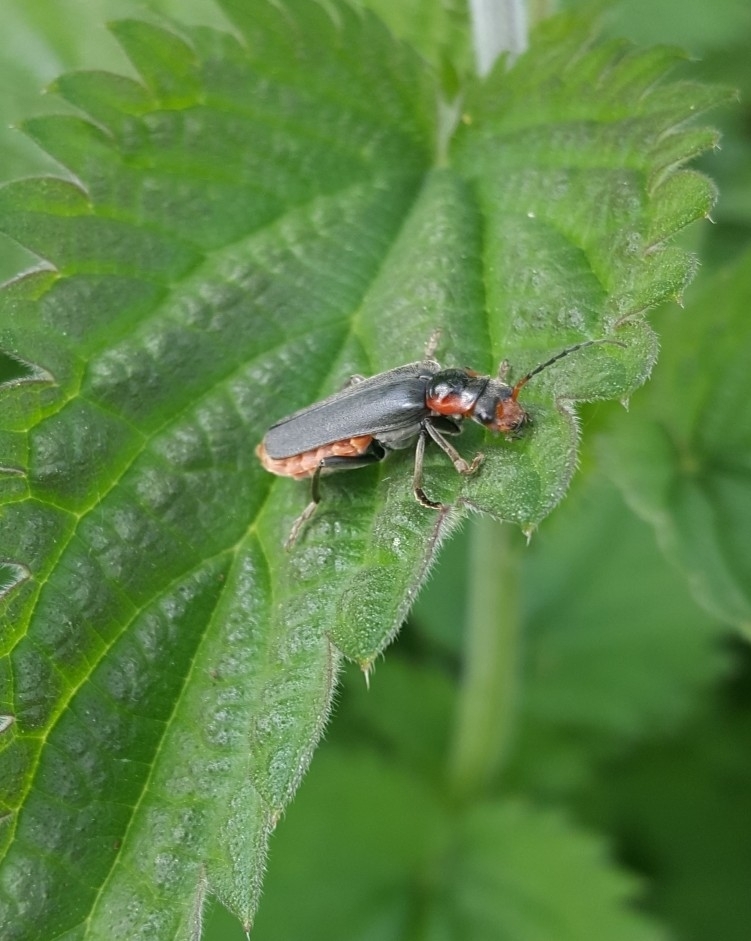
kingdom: Animalia
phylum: Arthropoda
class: Insecta
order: Coleoptera
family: Cantharidae
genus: Cantharis
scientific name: Cantharis fusca
